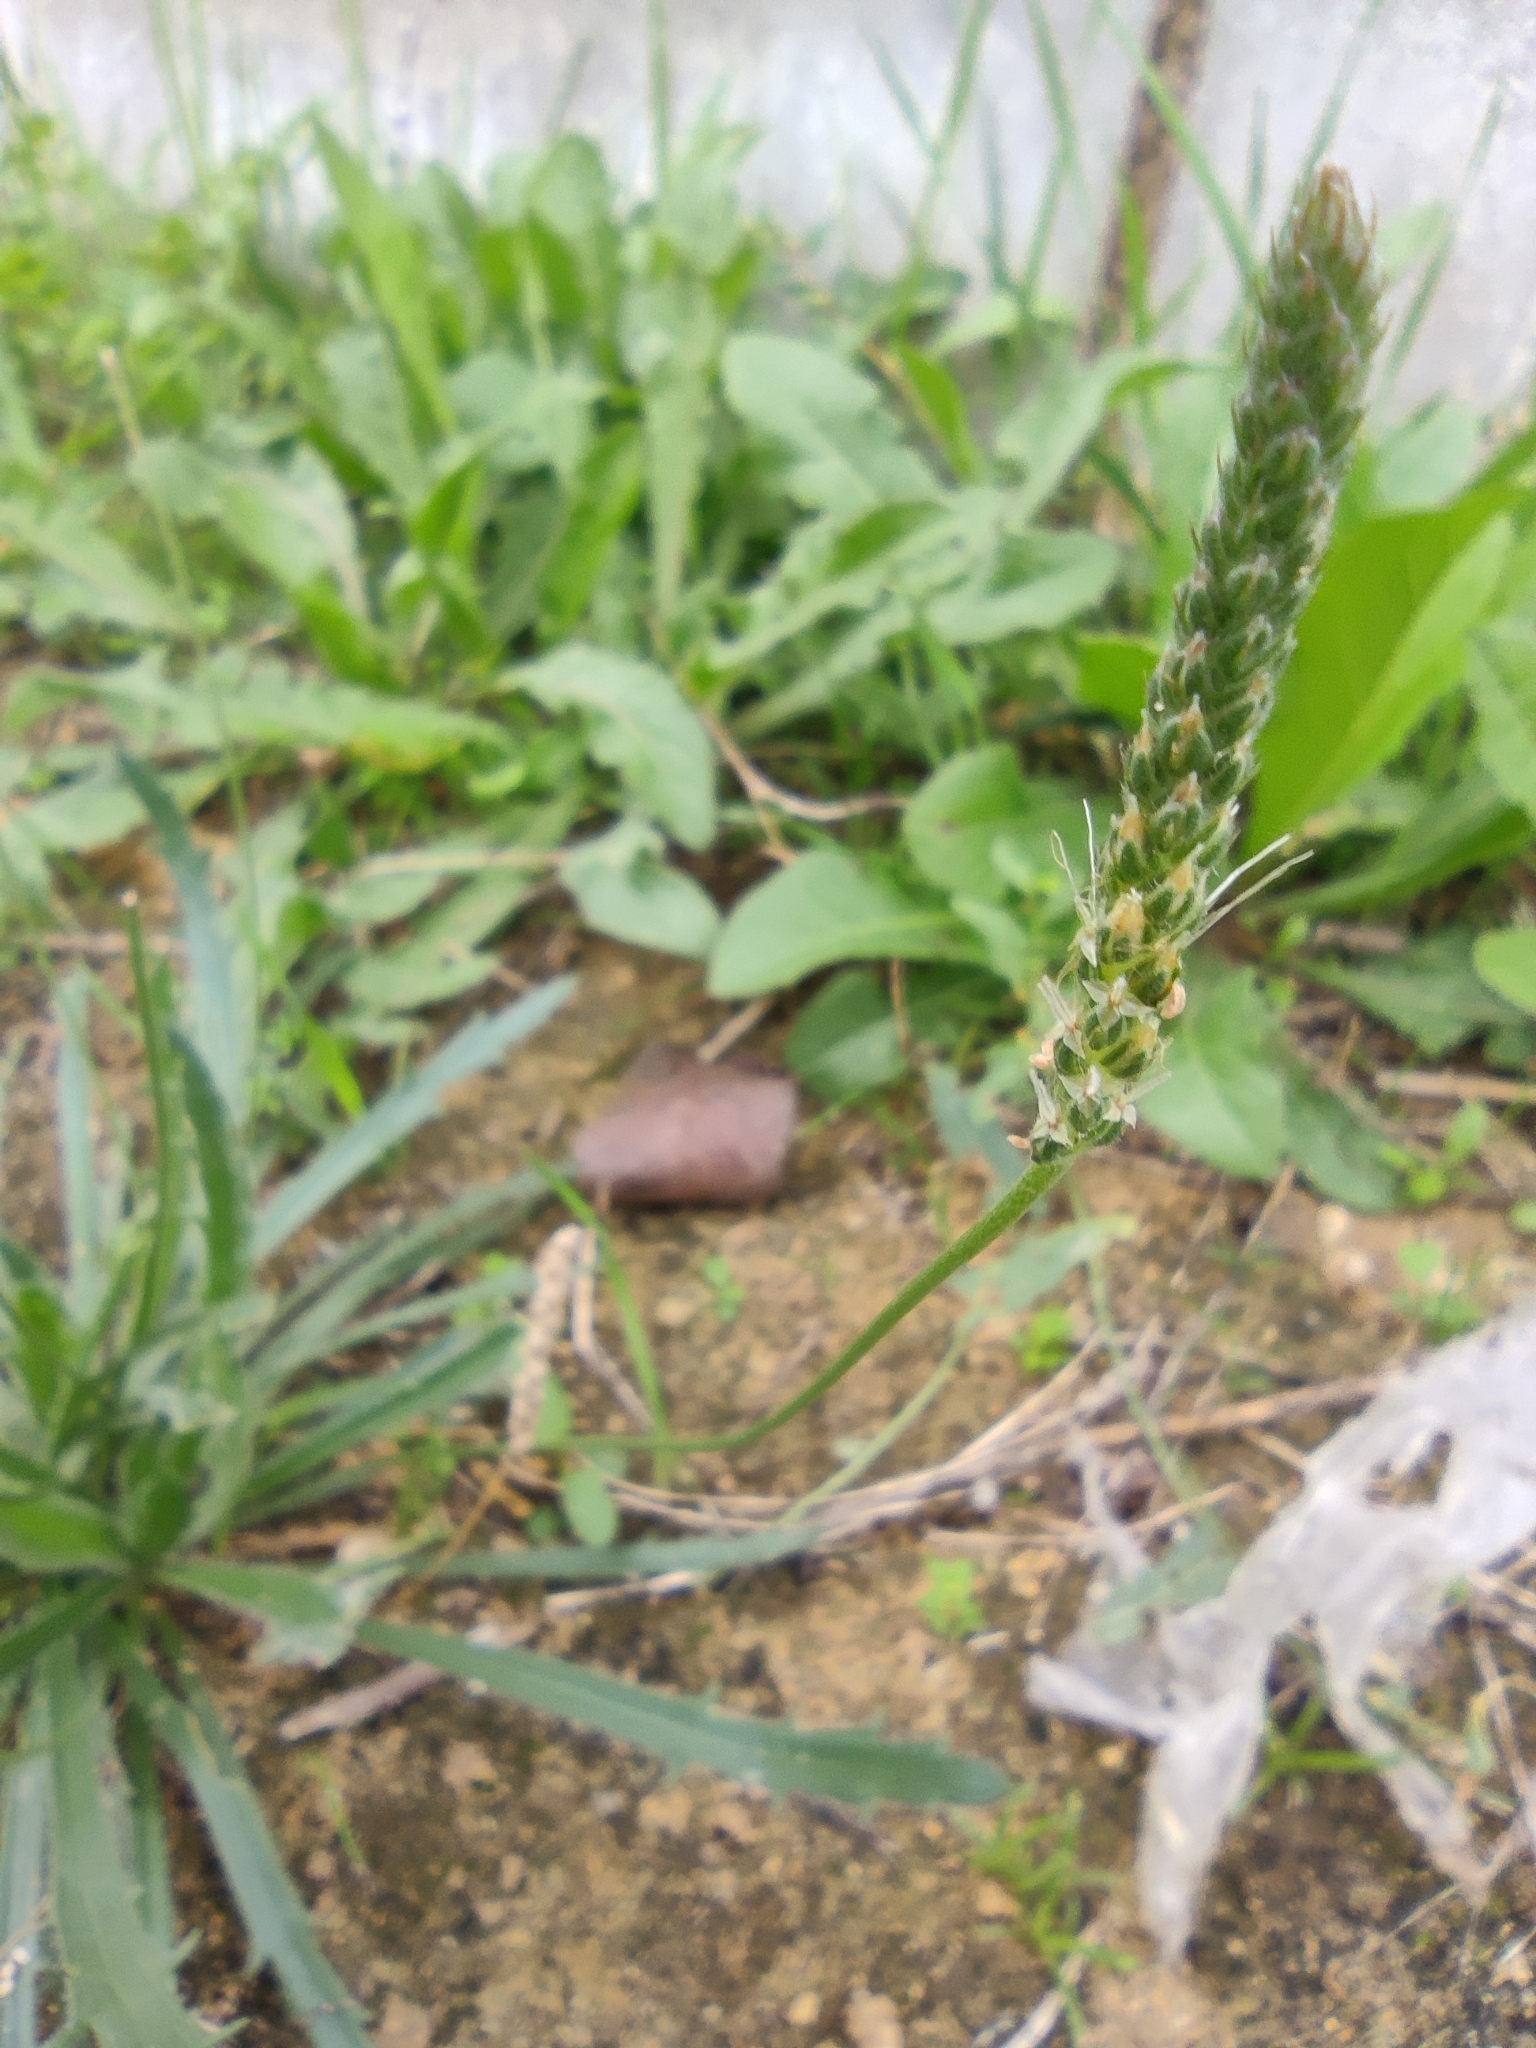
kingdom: Plantae
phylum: Tracheophyta
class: Magnoliopsida
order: Lamiales
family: Plantaginaceae
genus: Plantago
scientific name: Plantago coronopus
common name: Buck's-horn plantain
